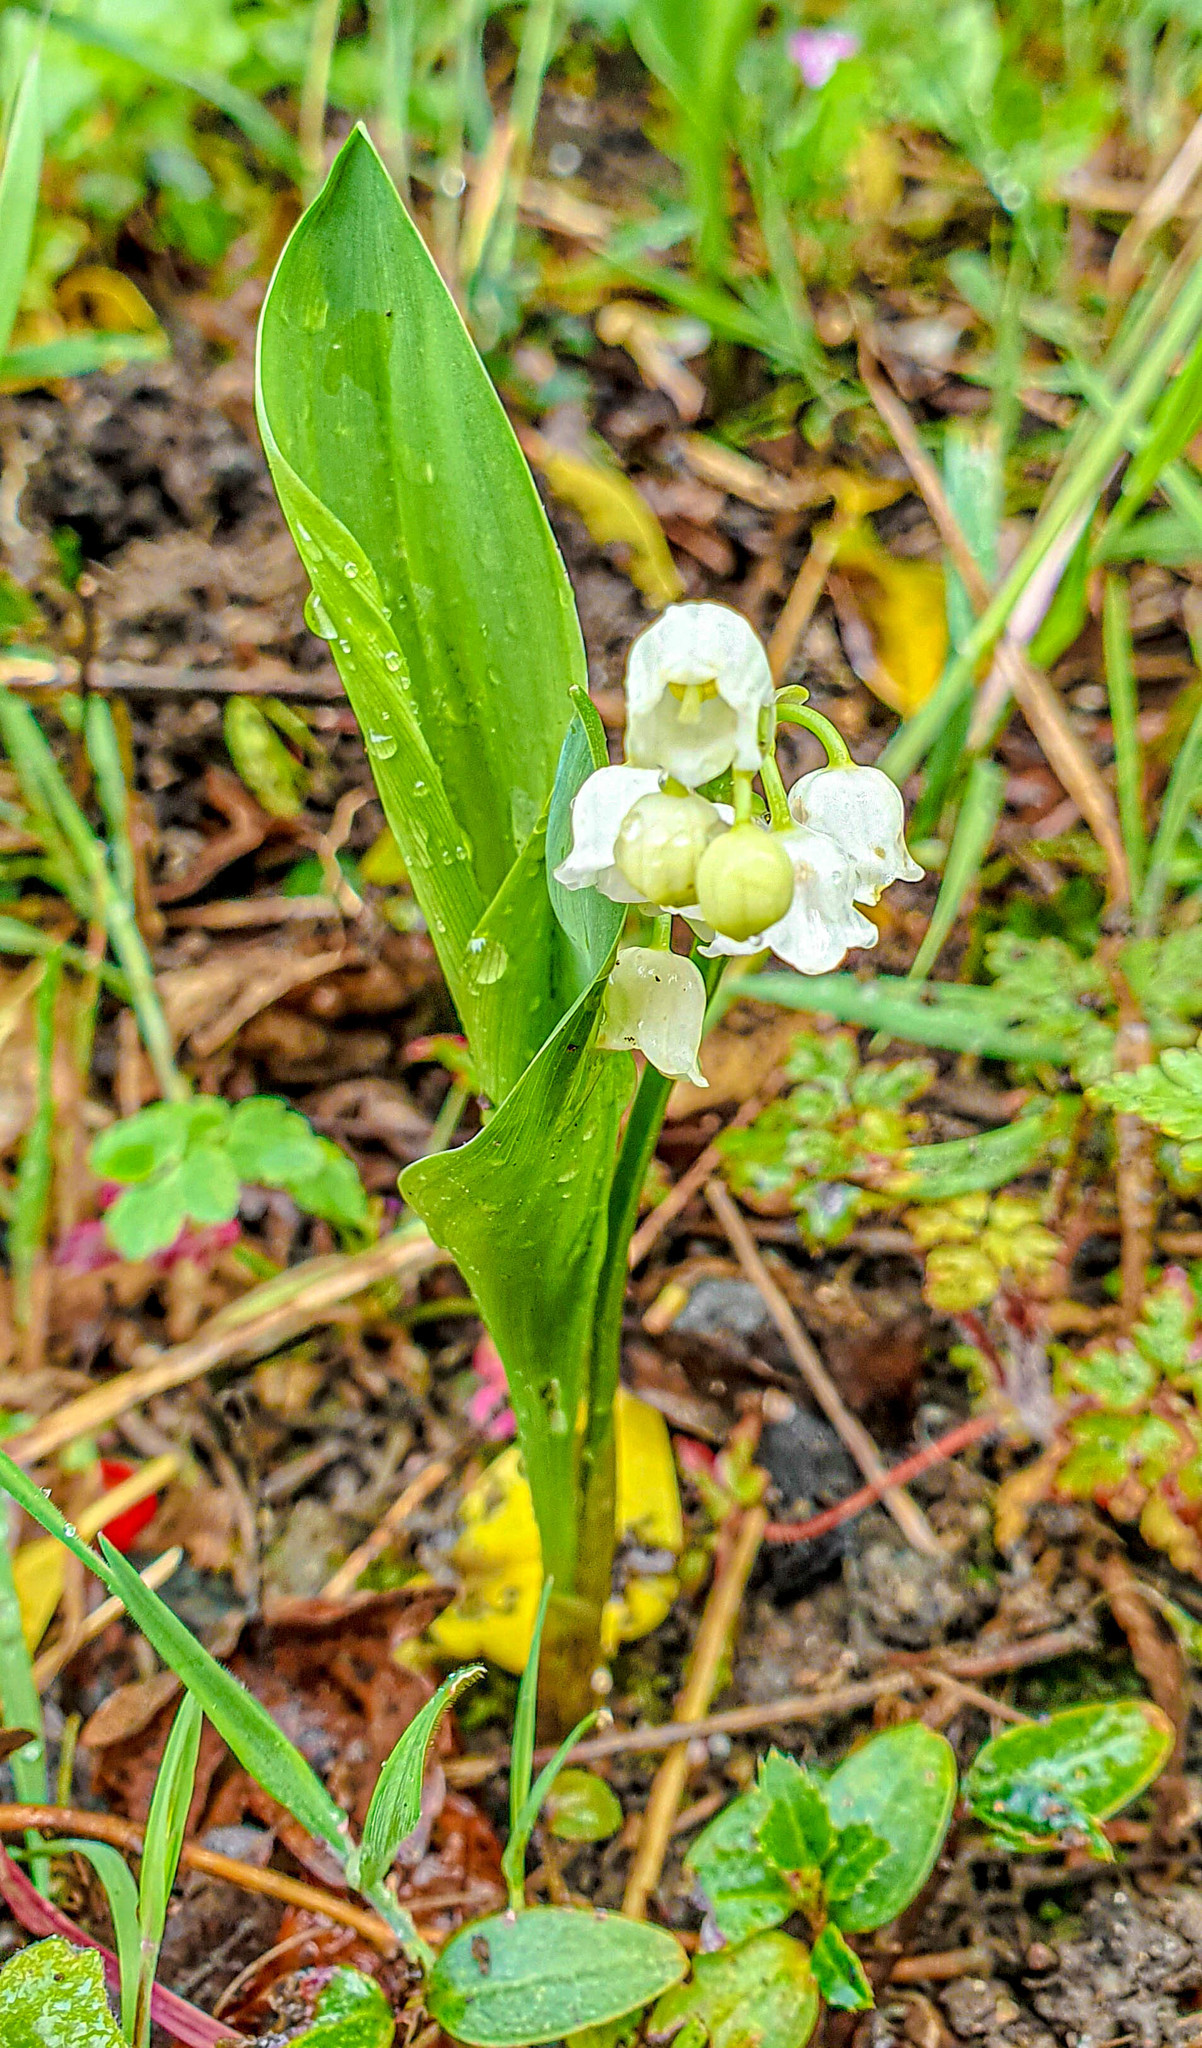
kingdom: Plantae
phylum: Tracheophyta
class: Liliopsida
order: Asparagales
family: Asparagaceae
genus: Convallaria
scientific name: Convallaria majalis
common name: Lily-of-the-valley
